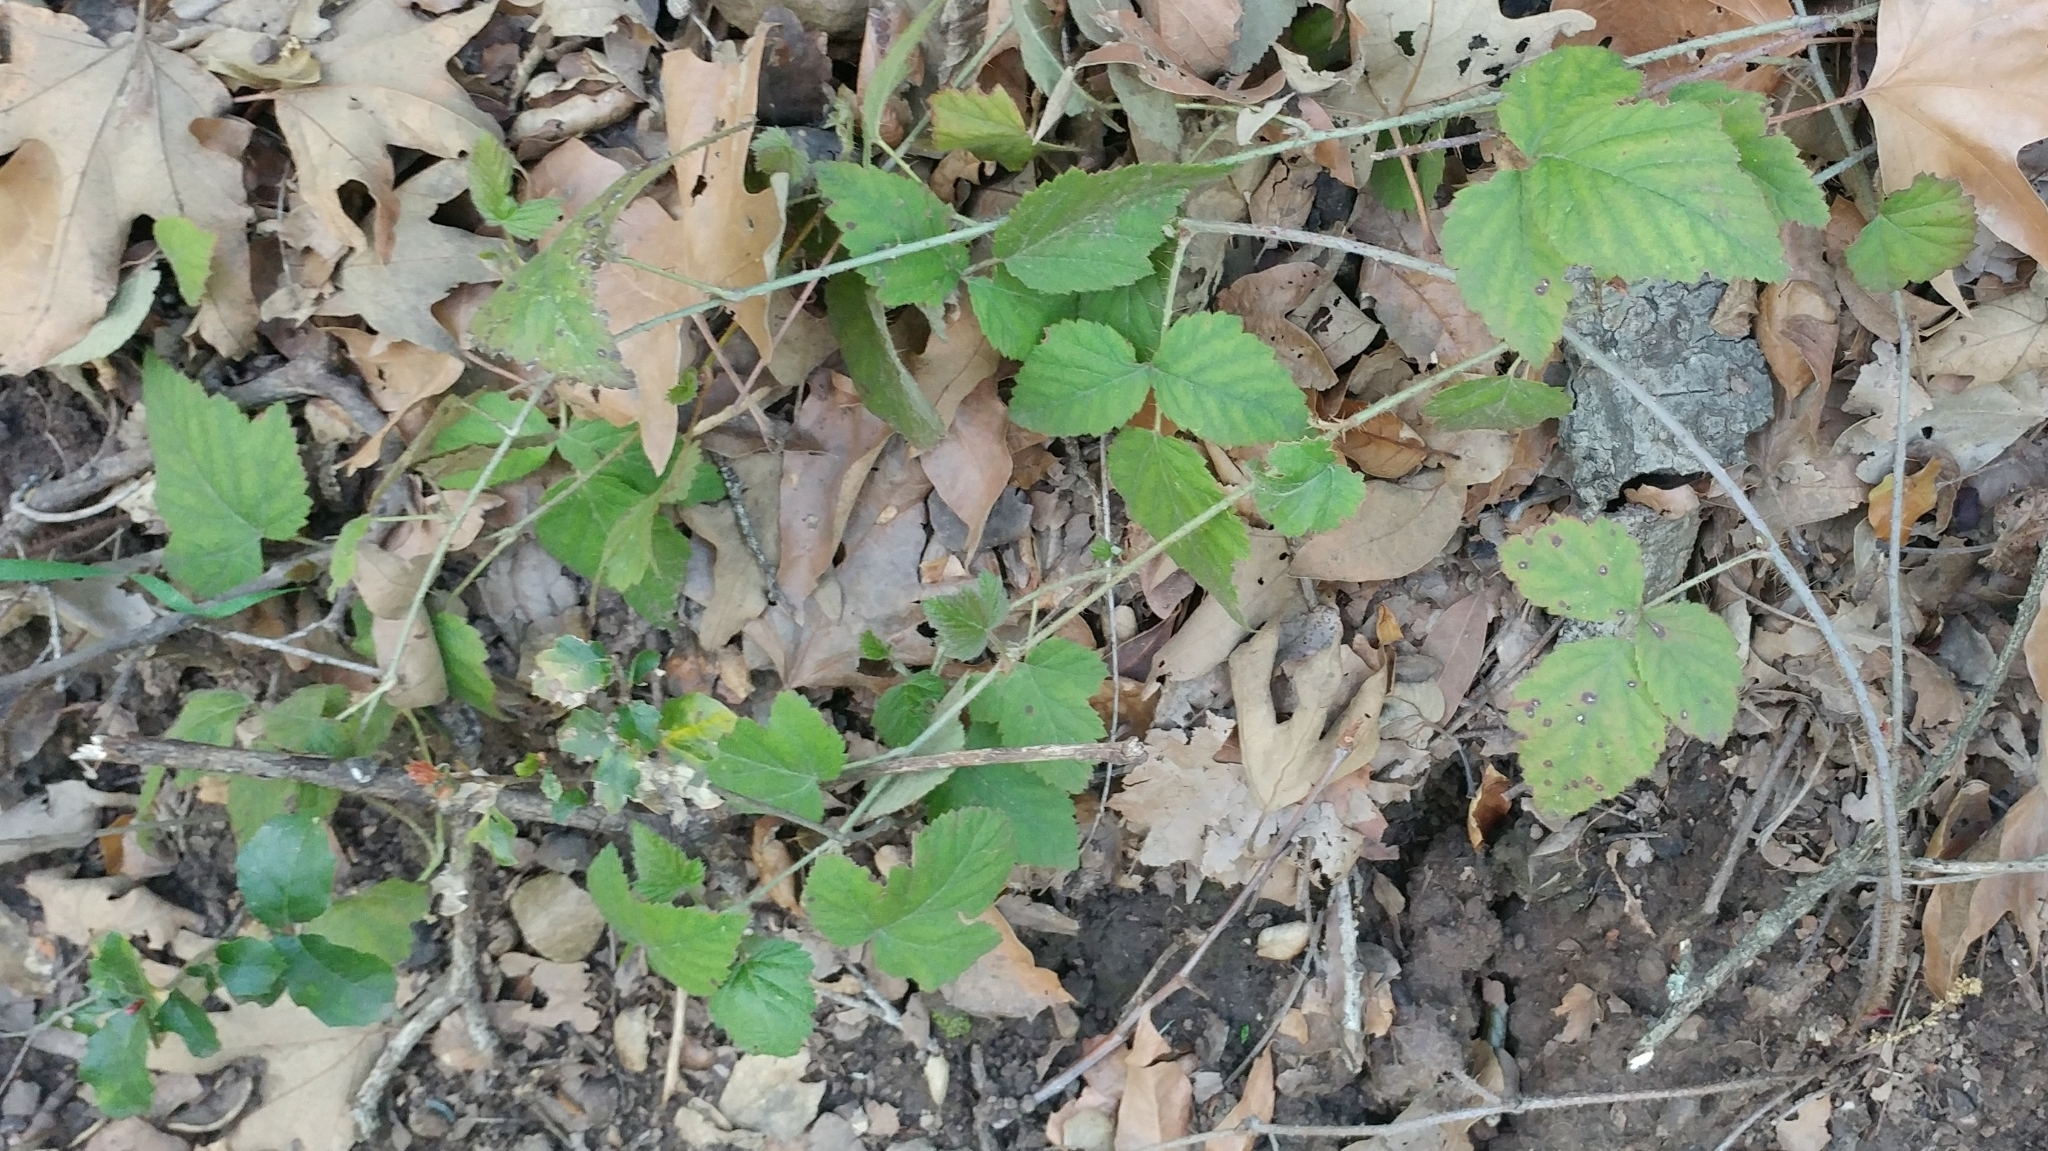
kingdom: Plantae
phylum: Tracheophyta
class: Magnoliopsida
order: Rosales
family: Rosaceae
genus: Rubus
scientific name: Rubus ursinus
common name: Pacific blackberry
